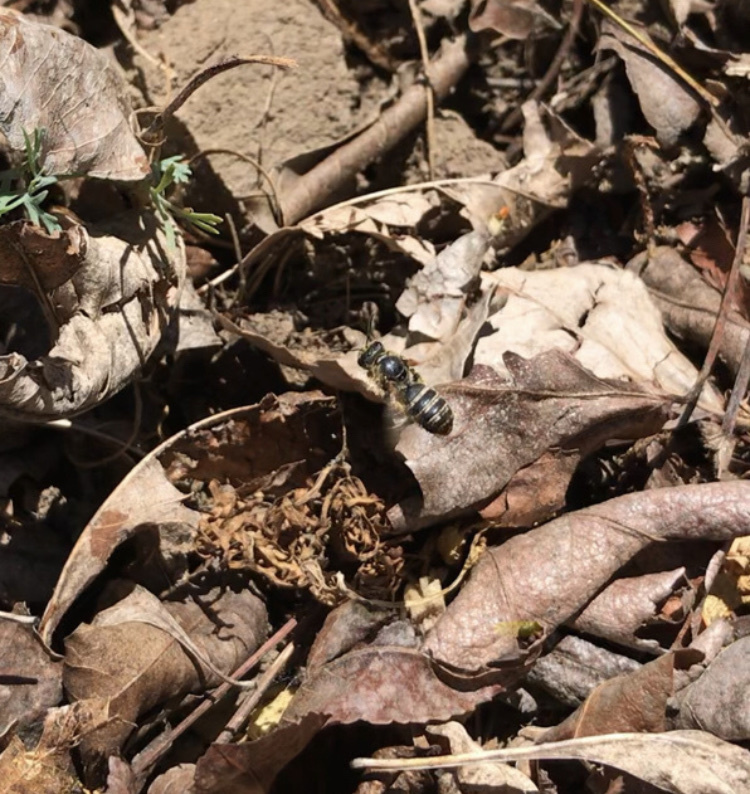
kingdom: Animalia
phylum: Arthropoda
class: Insecta
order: Hymenoptera
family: Halictidae
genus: Halictus
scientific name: Halictus farinosus
